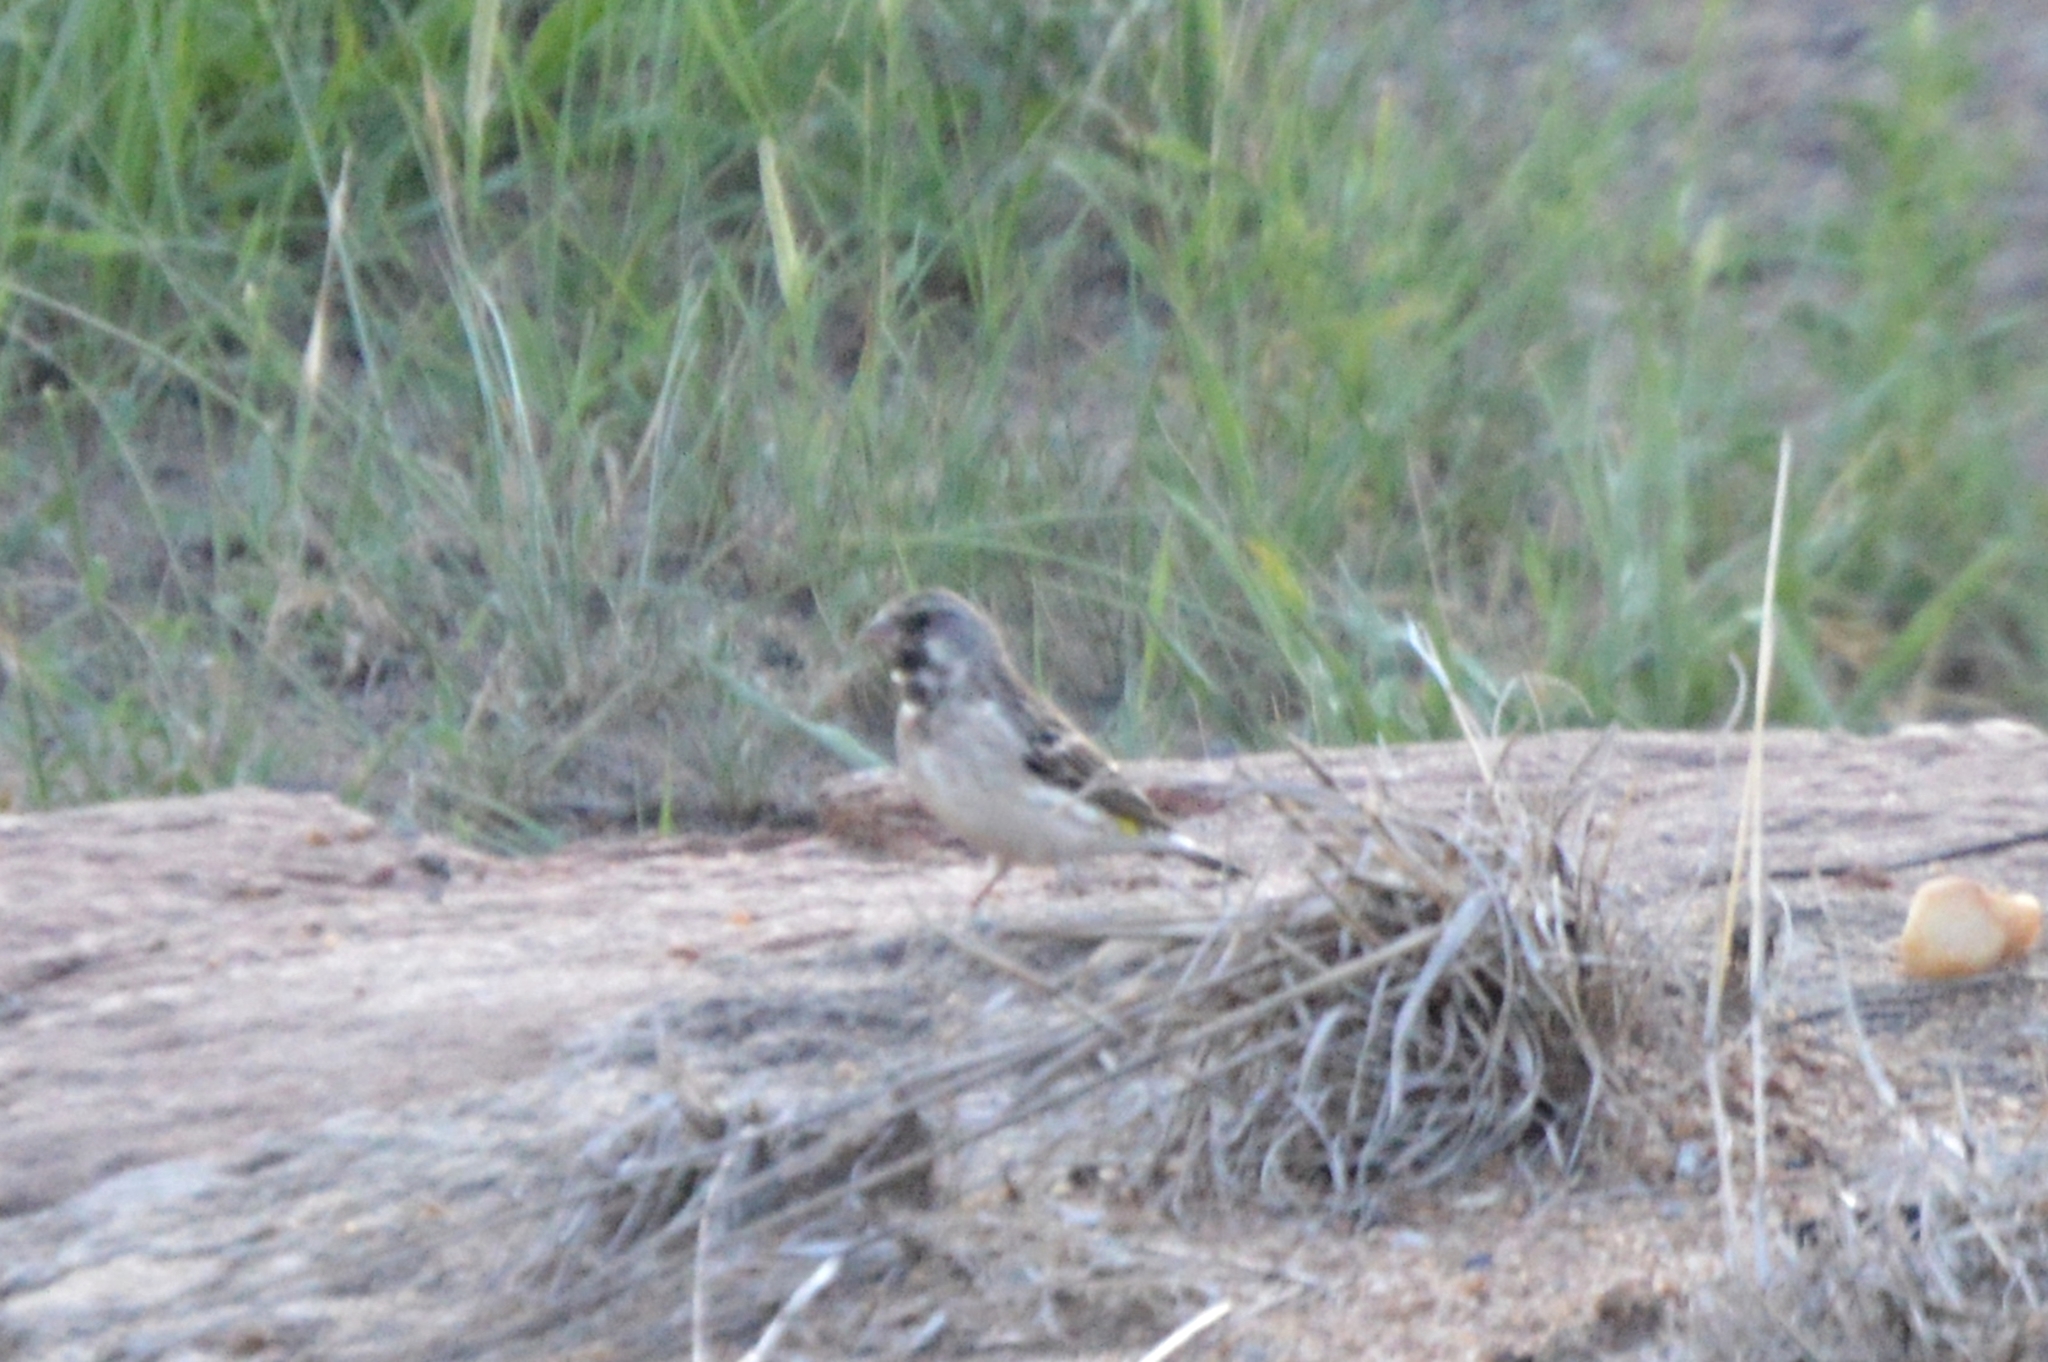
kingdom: Animalia
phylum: Chordata
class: Aves
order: Passeriformes
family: Fringillidae
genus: Crithagra
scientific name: Crithagra atrogularis
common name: Black-throated canary
